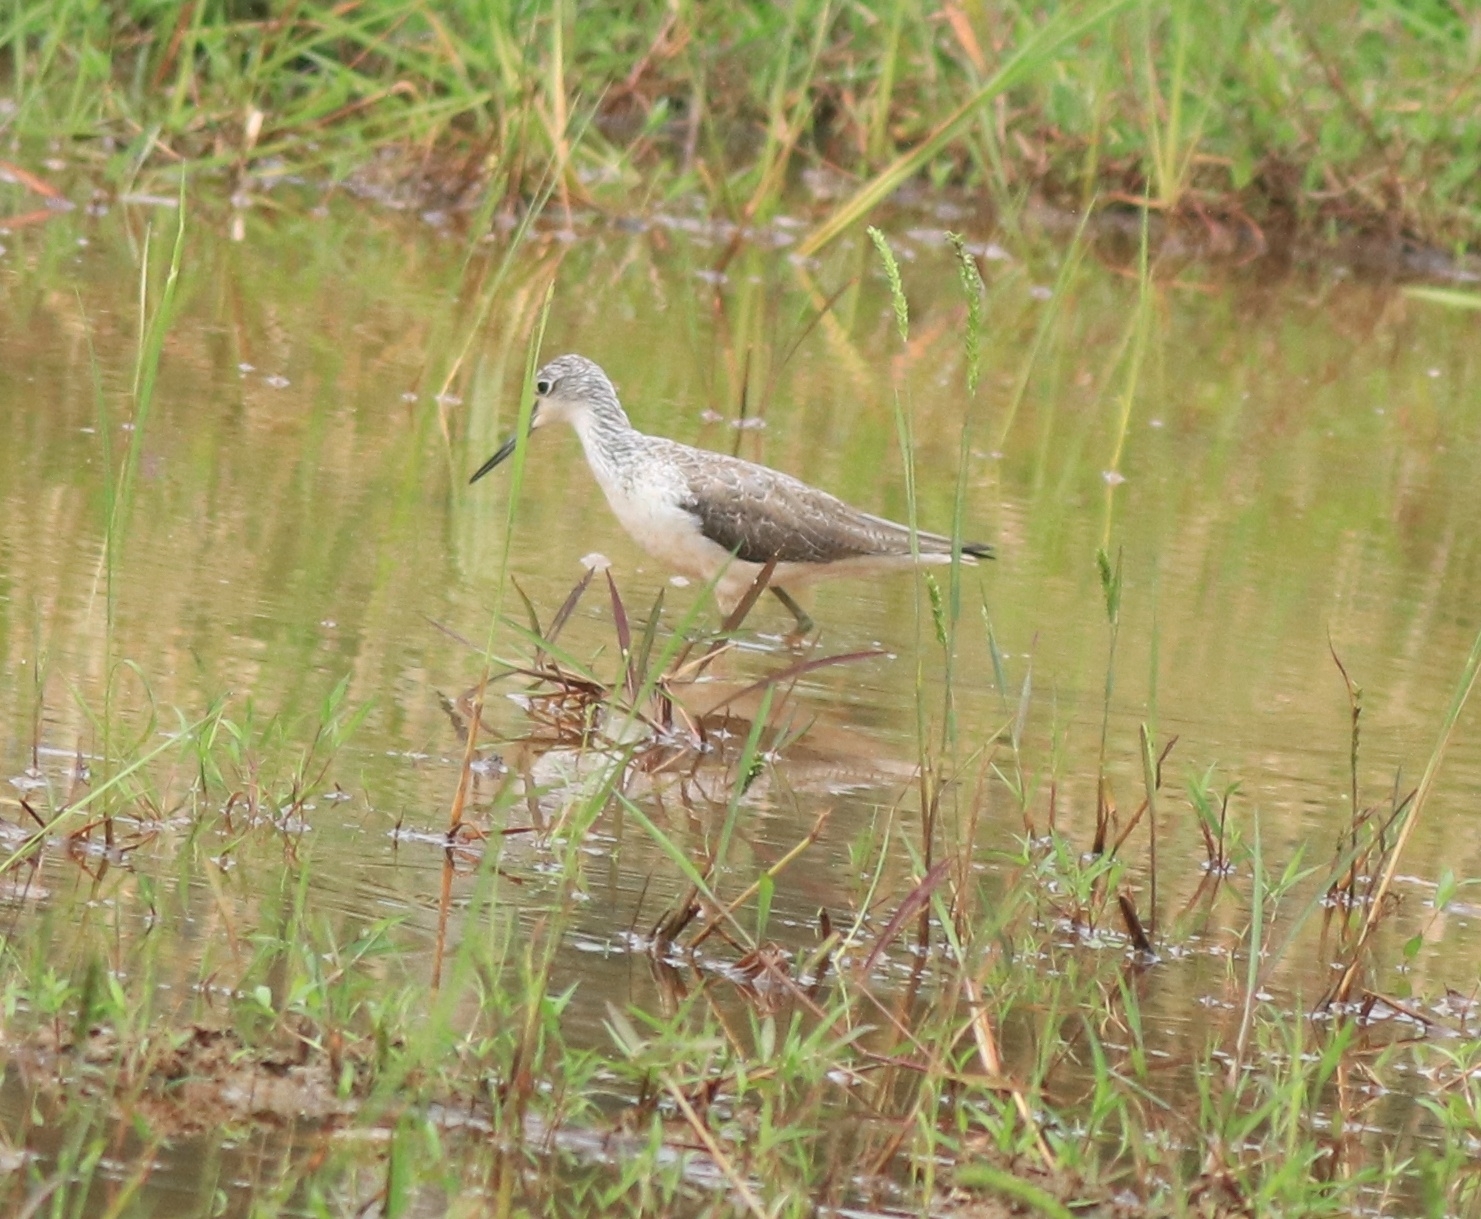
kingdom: Animalia
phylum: Chordata
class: Aves
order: Charadriiformes
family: Scolopacidae
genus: Tringa
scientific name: Tringa nebularia
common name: Common greenshank
